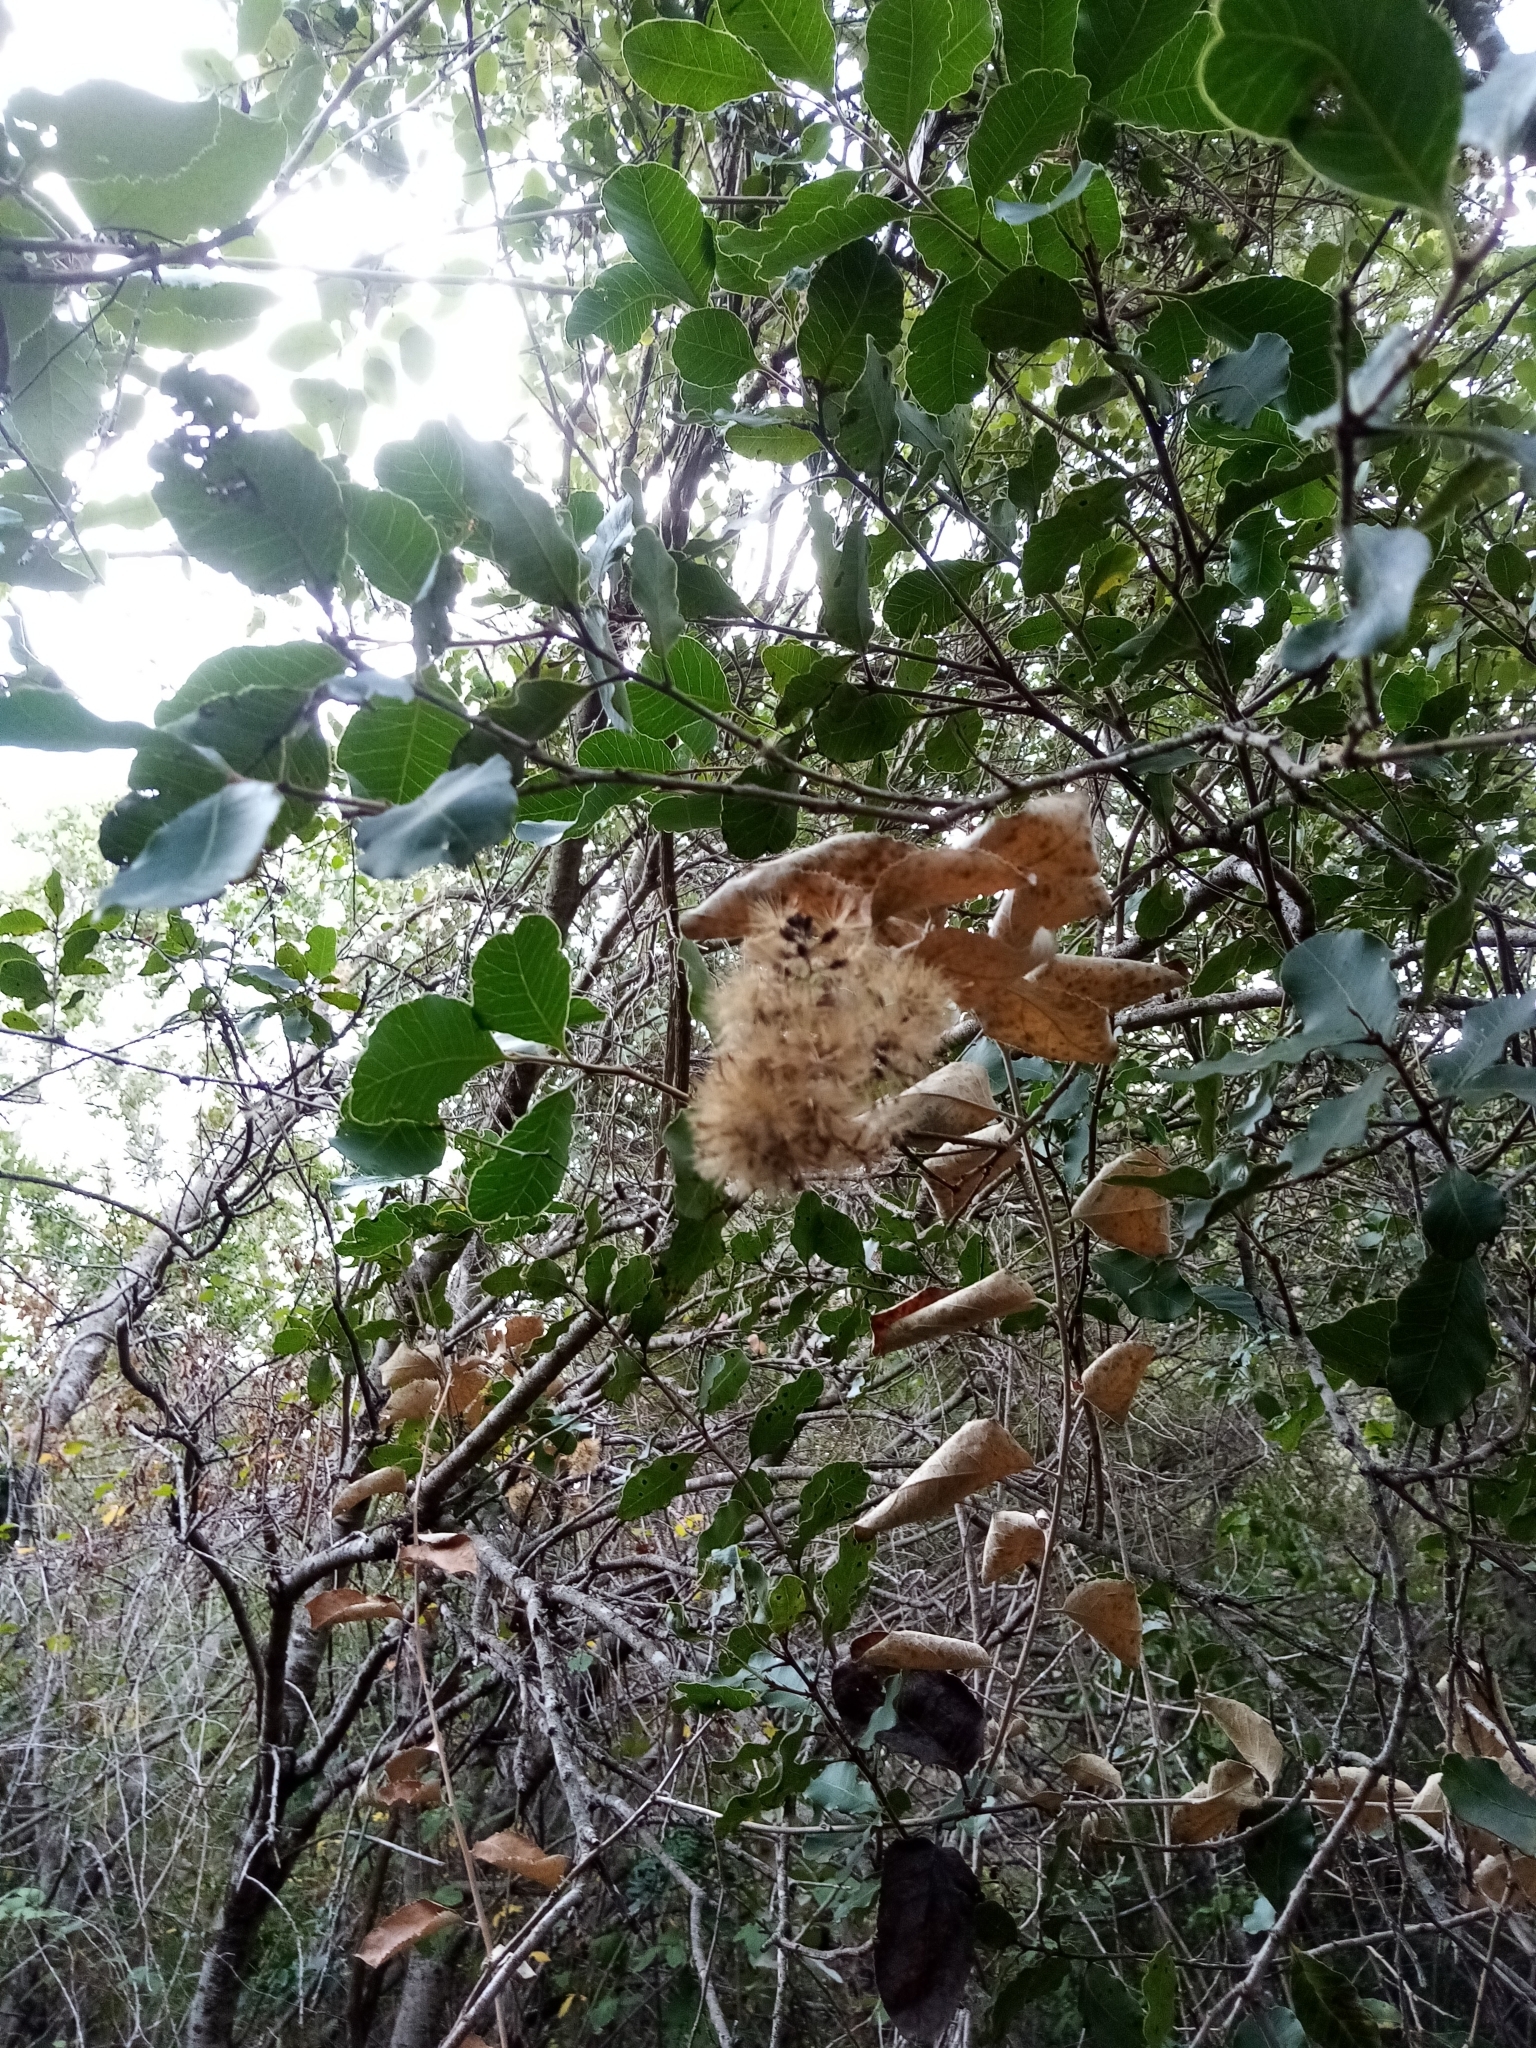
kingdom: Plantae
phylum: Tracheophyta
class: Magnoliopsida
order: Asterales
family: Asteraceae
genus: Proustia
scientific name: Proustia pyrifolia
